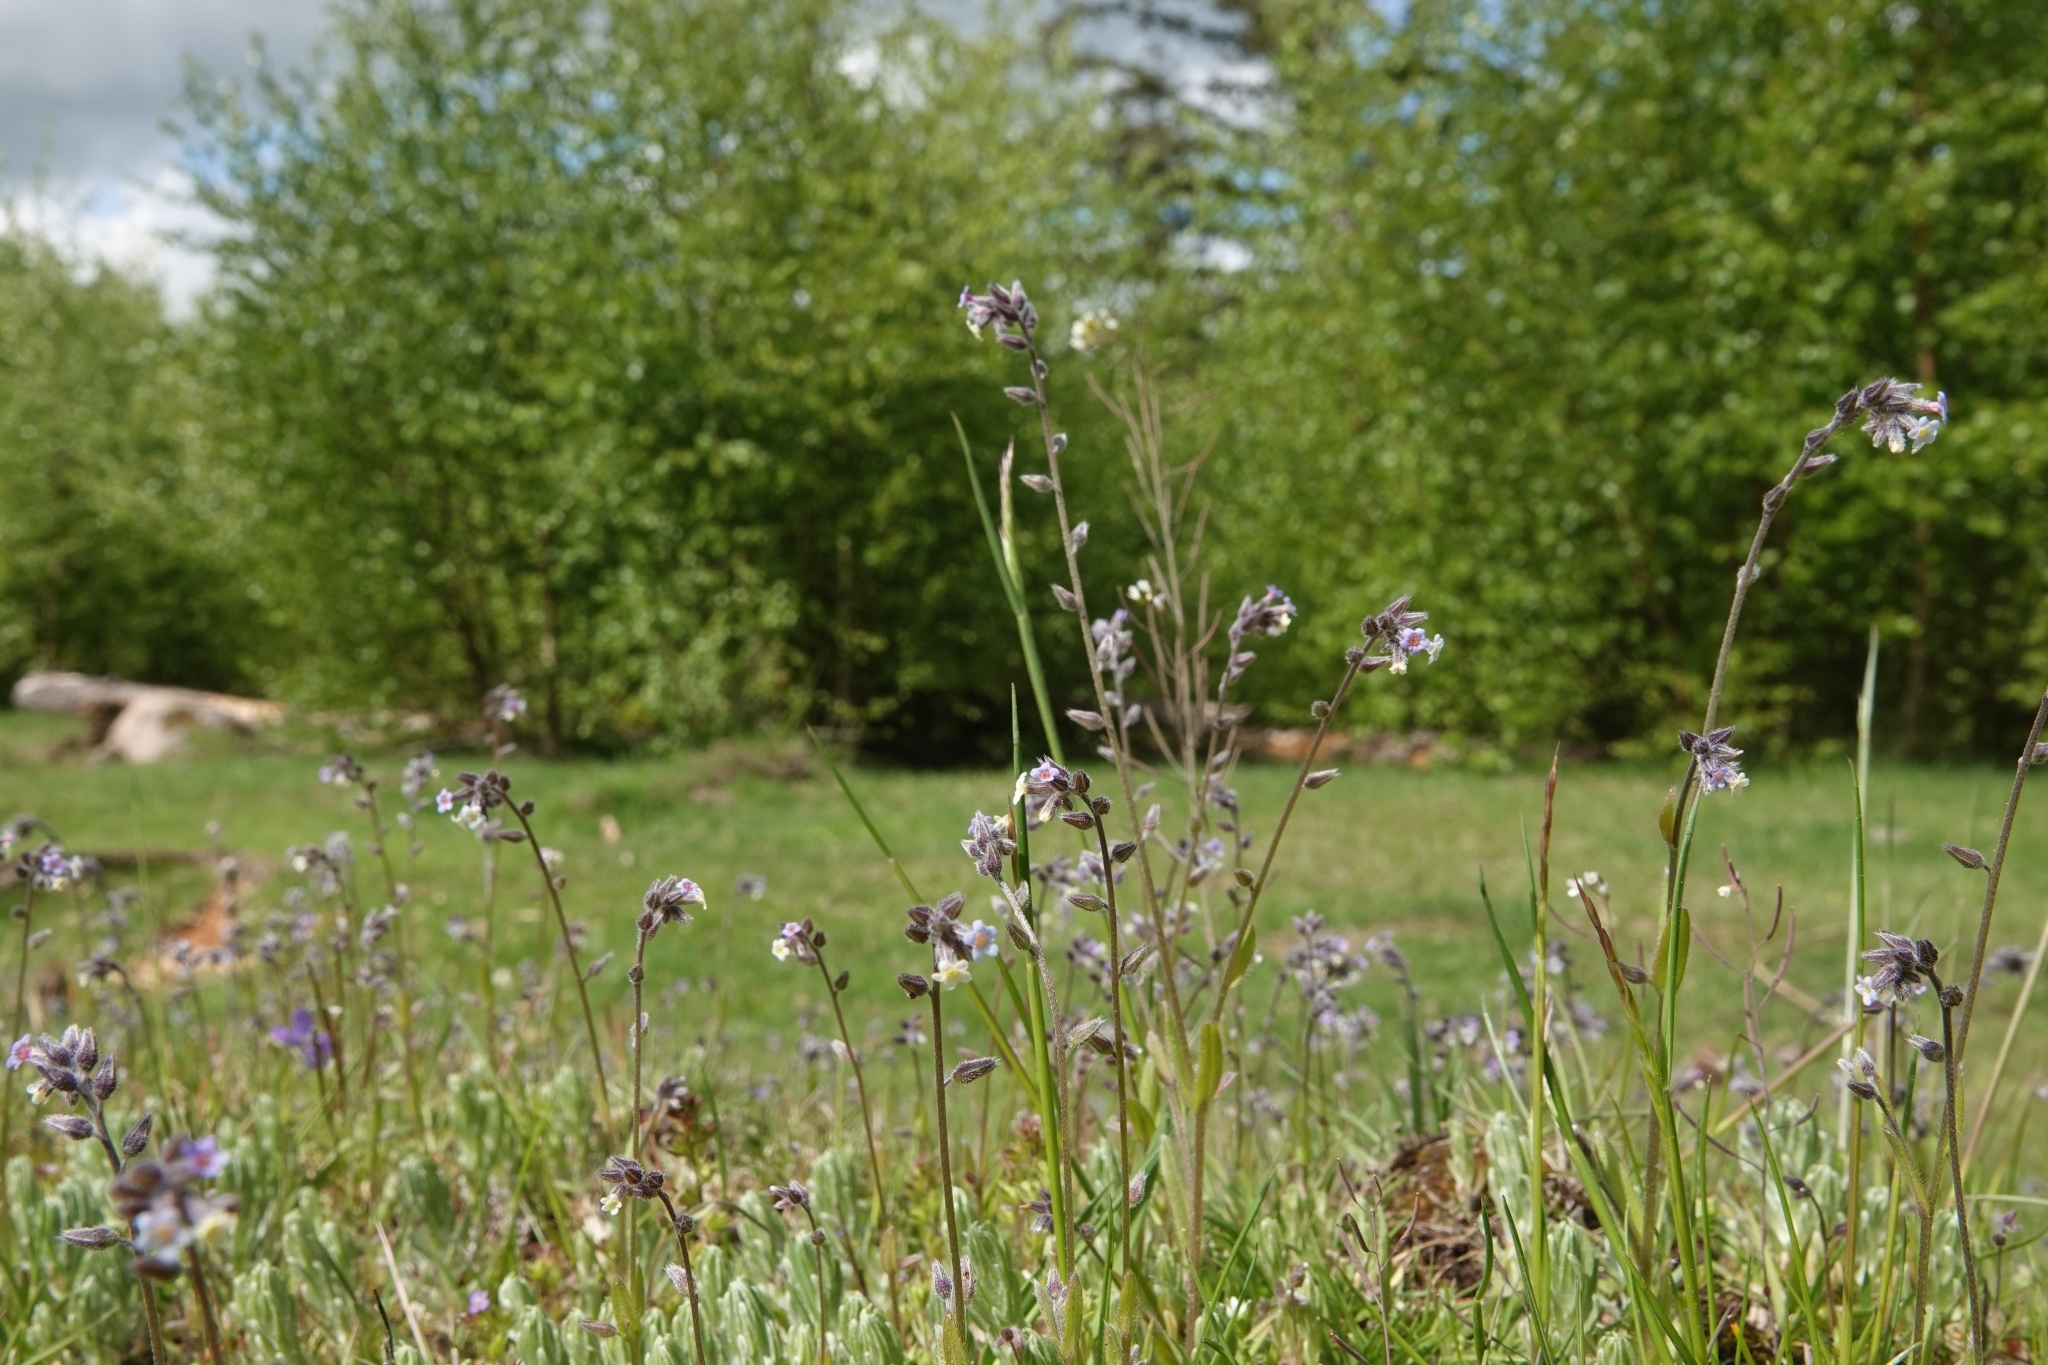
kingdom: Plantae
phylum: Tracheophyta
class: Magnoliopsida
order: Boraginales
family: Boraginaceae
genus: Myosotis
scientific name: Myosotis discolor
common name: Changing forget-me-not
